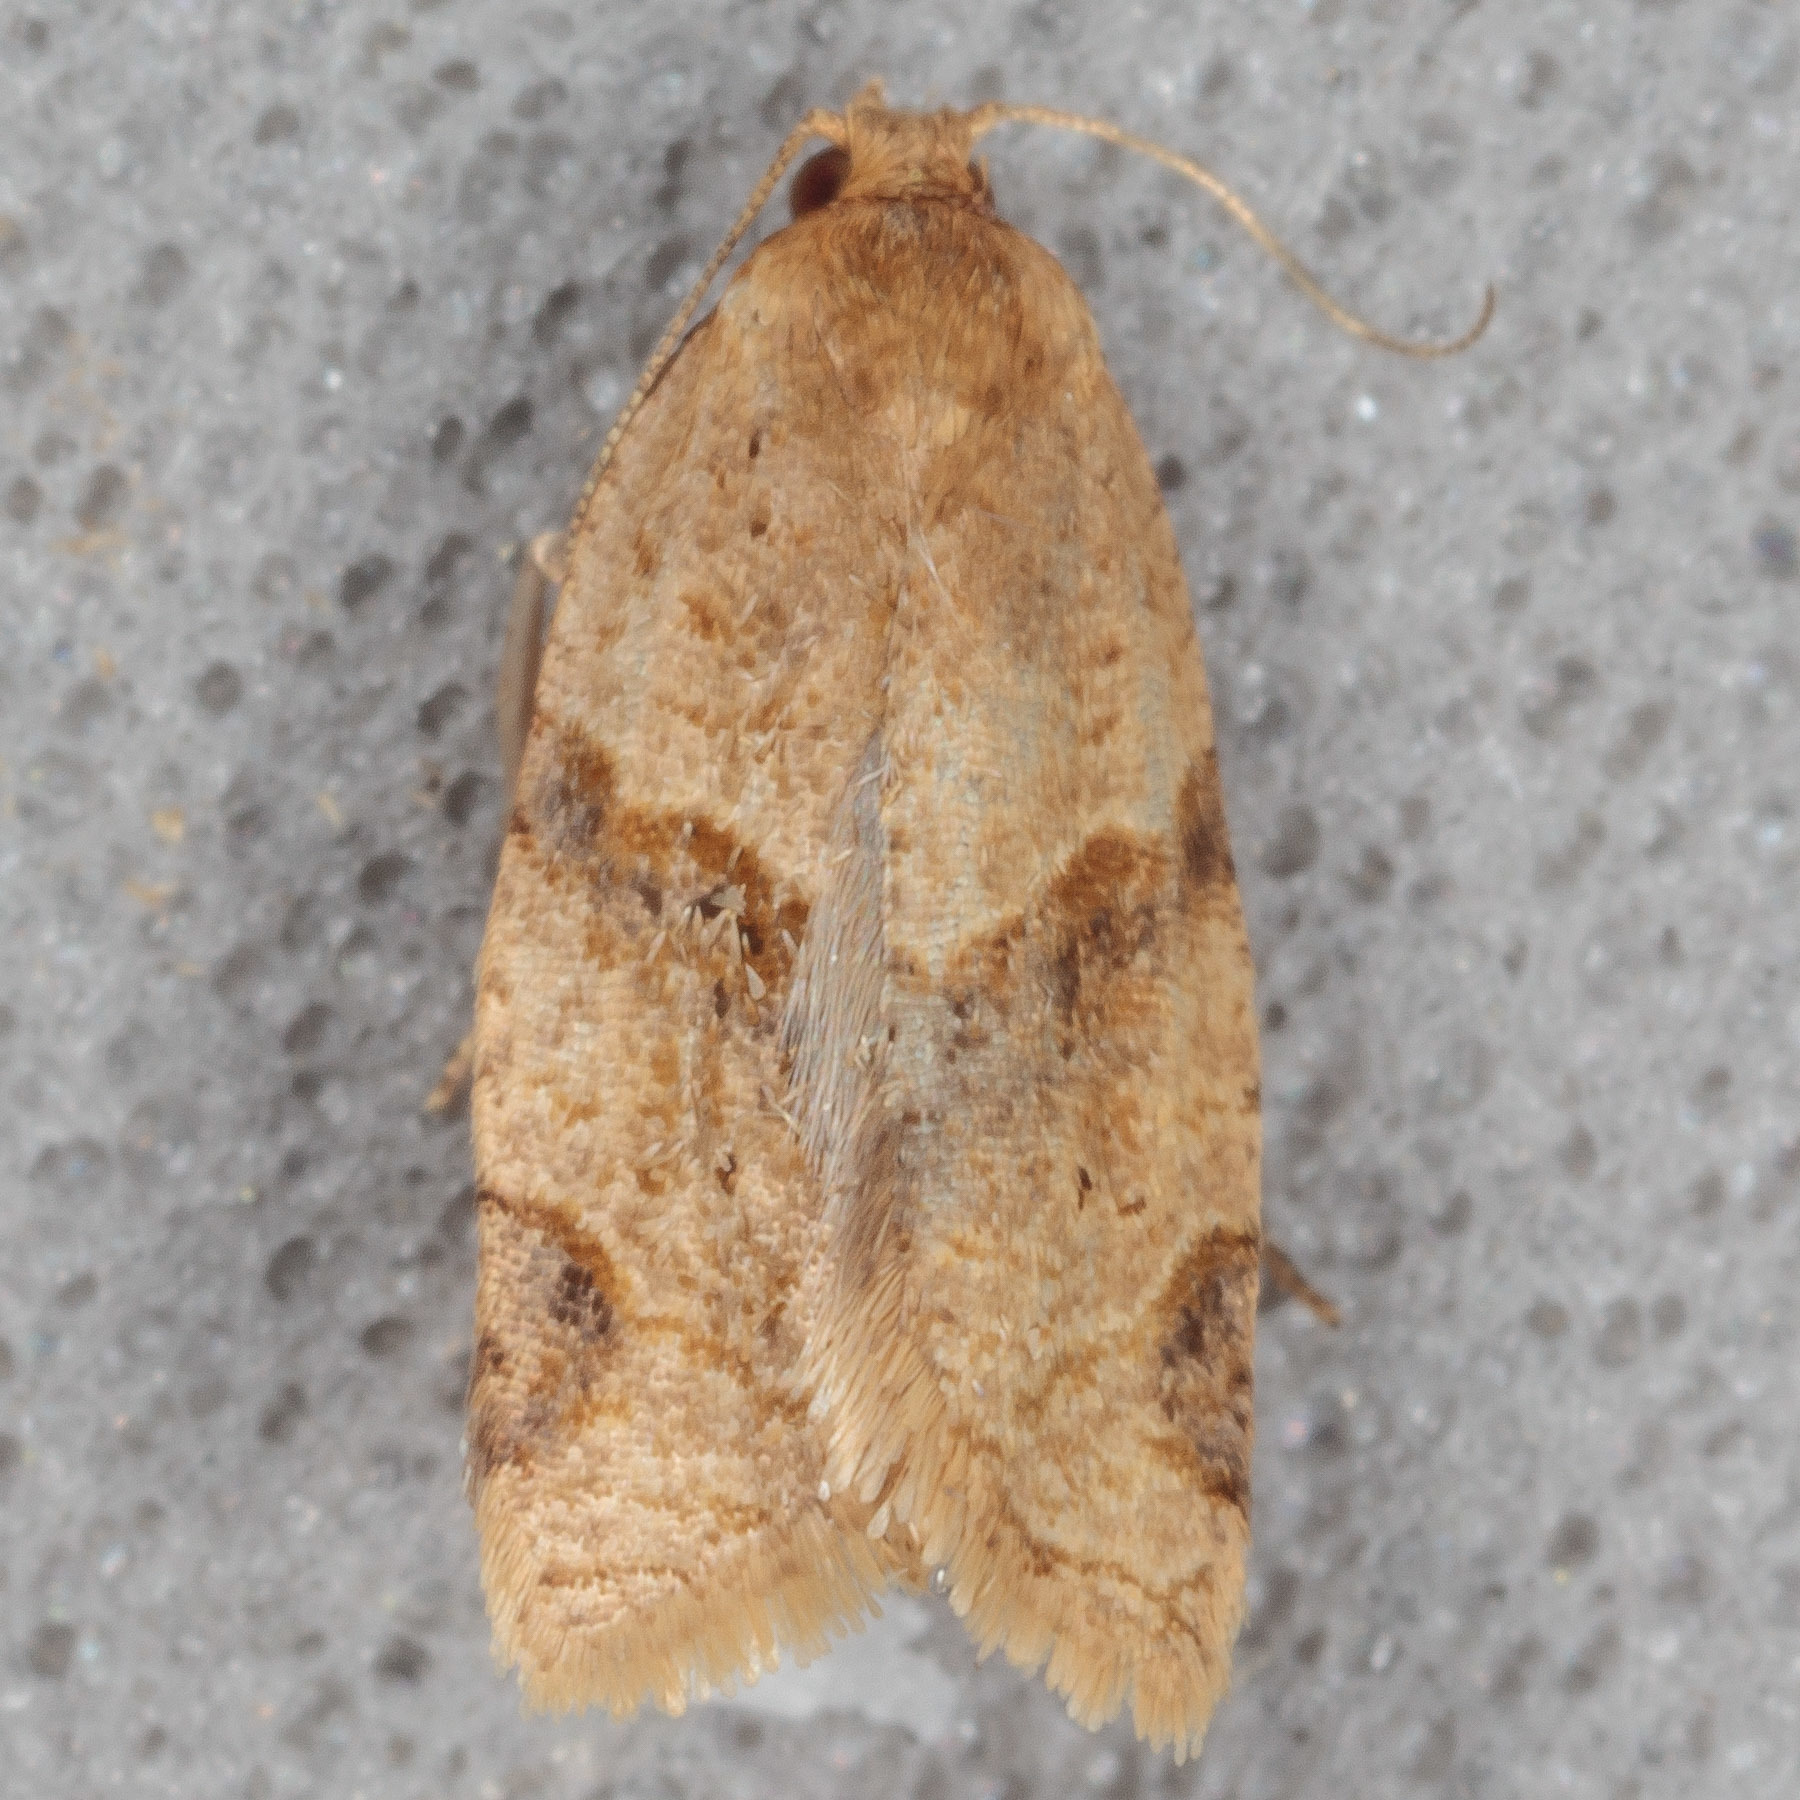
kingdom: Animalia
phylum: Arthropoda
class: Insecta
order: Lepidoptera
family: Tortricidae
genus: Clepsis
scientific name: Clepsis peritana
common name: Garden tortrix
